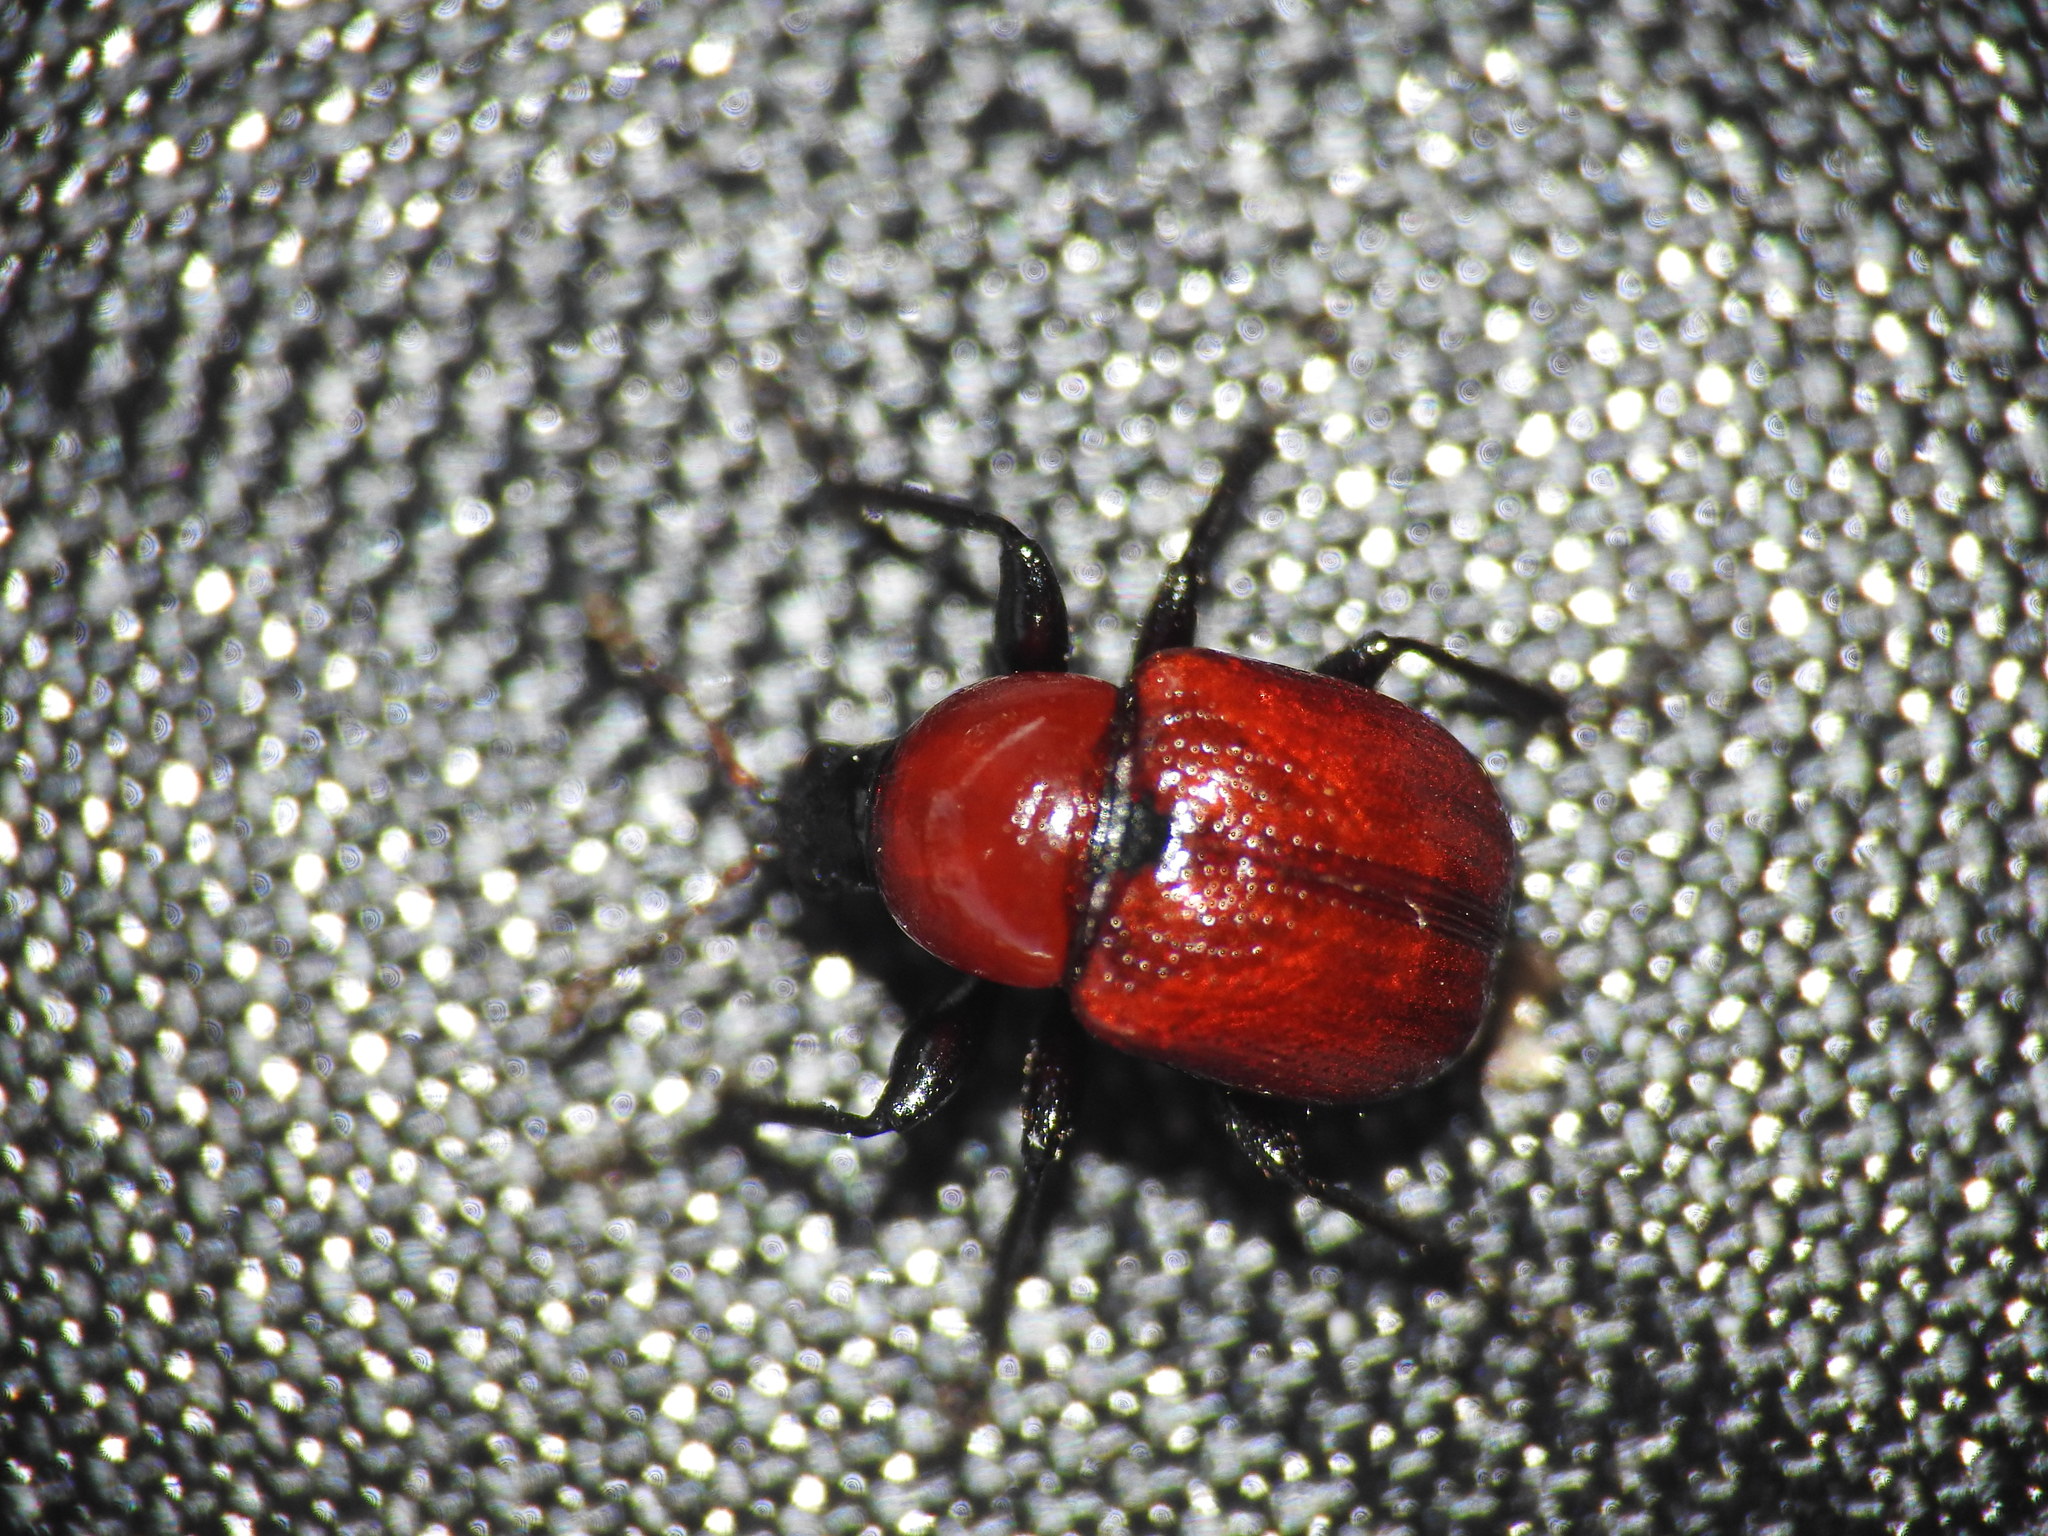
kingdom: Animalia
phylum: Arthropoda
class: Insecta
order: Coleoptera
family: Attelabidae
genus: Attelabus
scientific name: Attelabus nitens
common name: Oak leaf-roller
